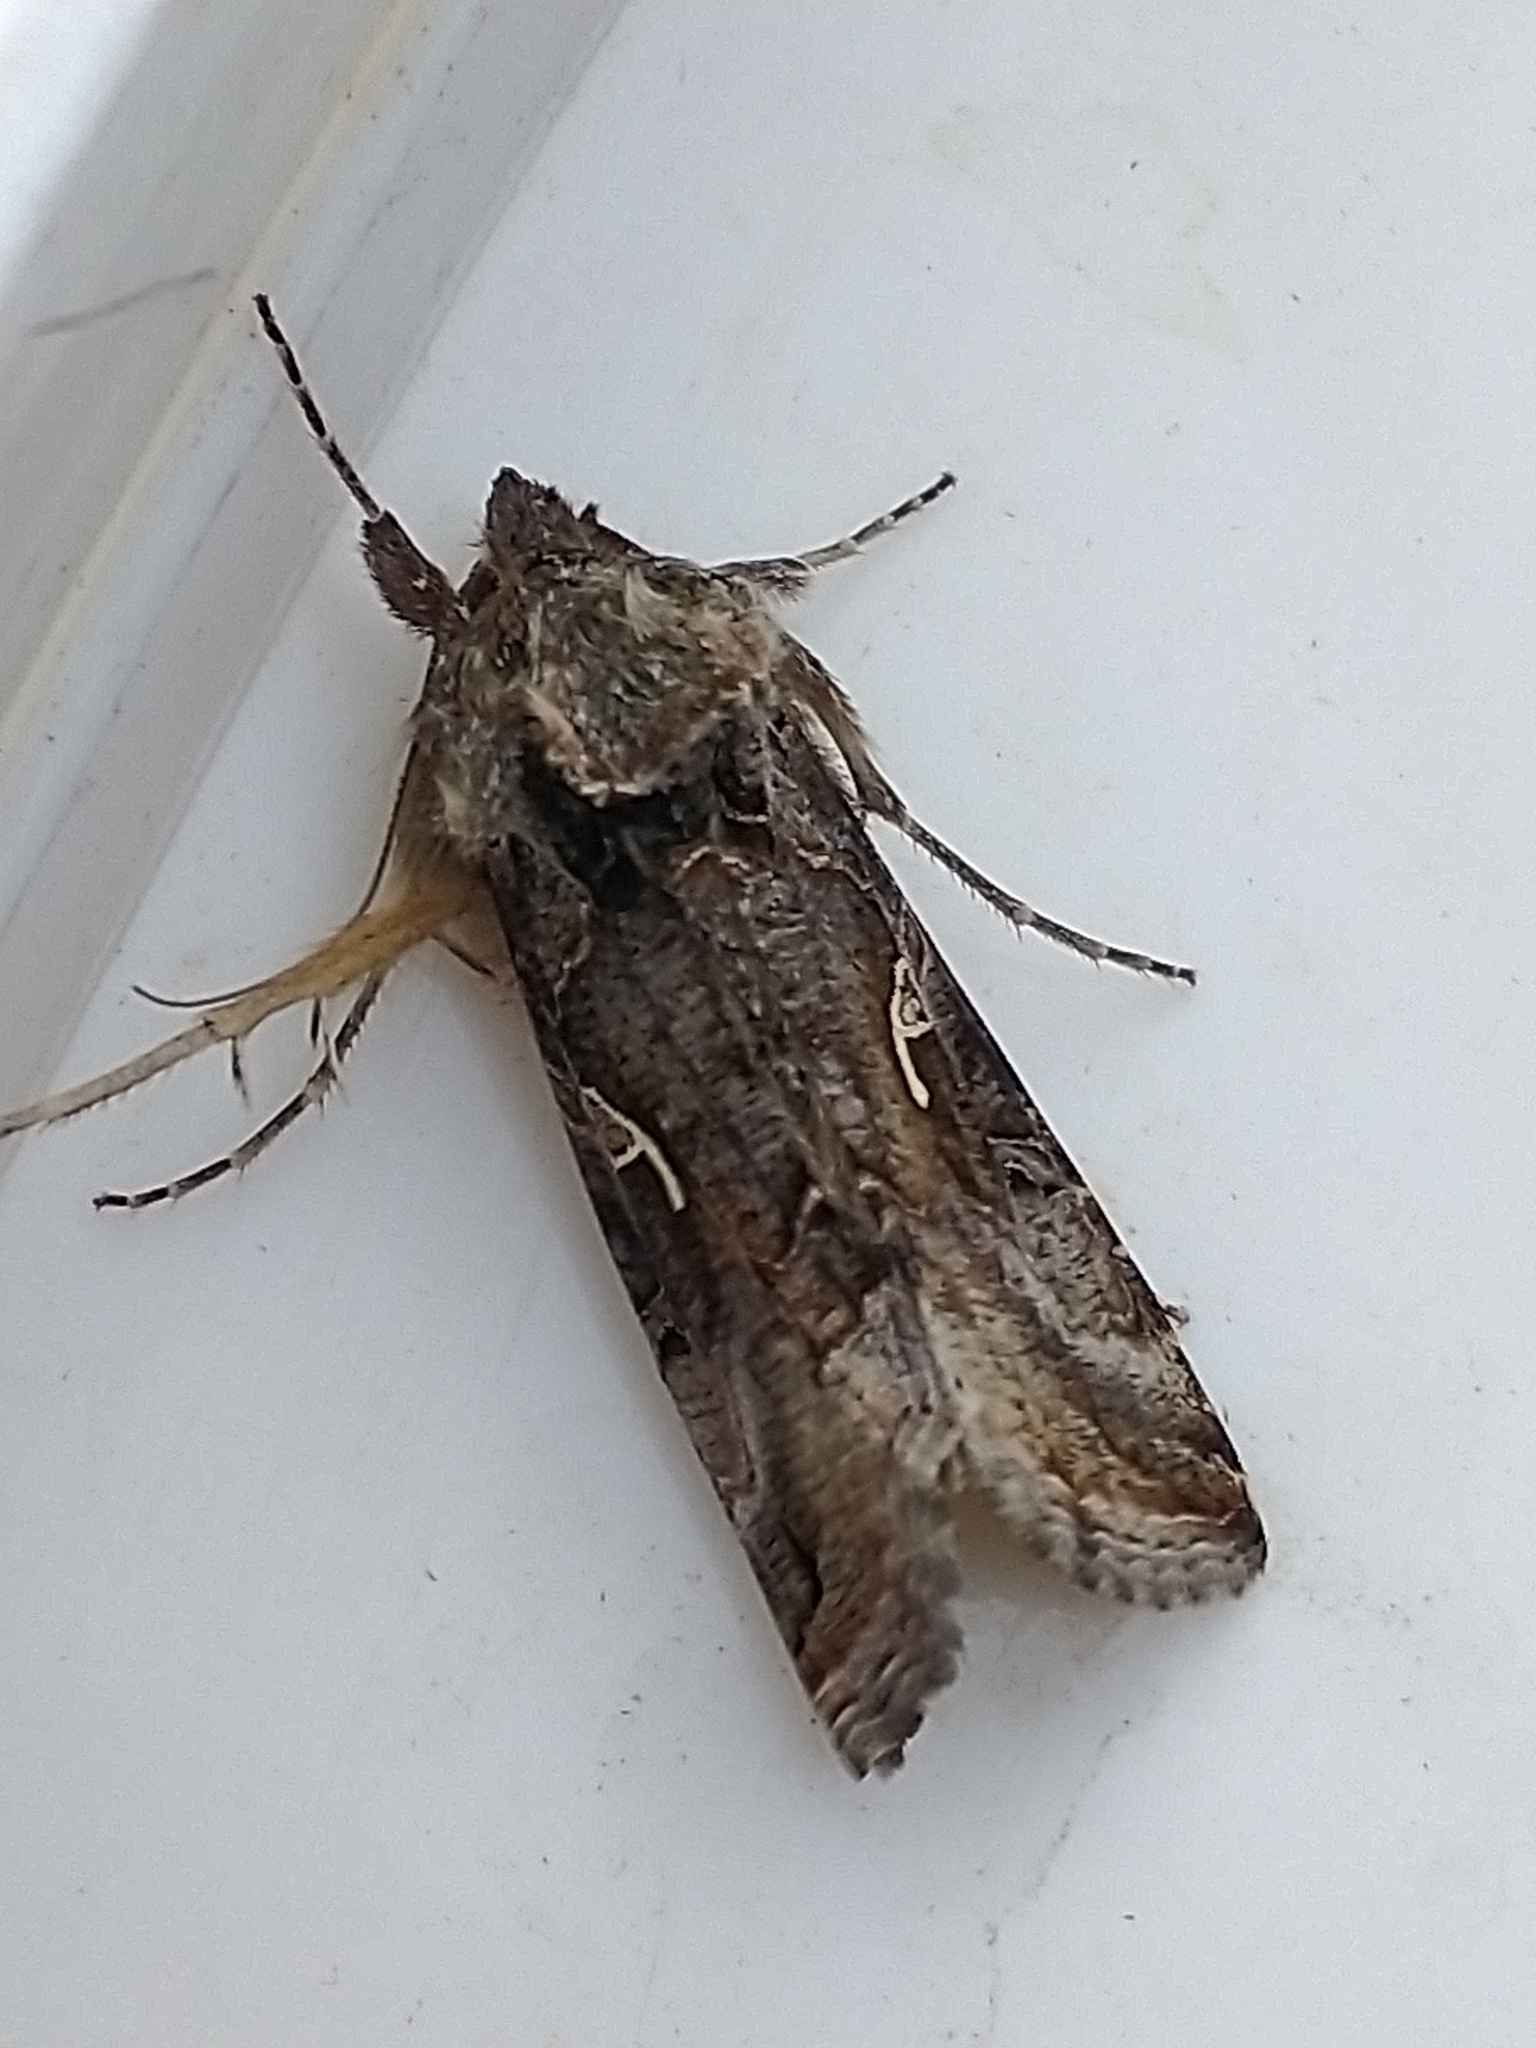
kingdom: Animalia
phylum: Arthropoda
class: Insecta
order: Lepidoptera
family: Noctuidae
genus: Autographa
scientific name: Autographa gamma
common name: Silver y
